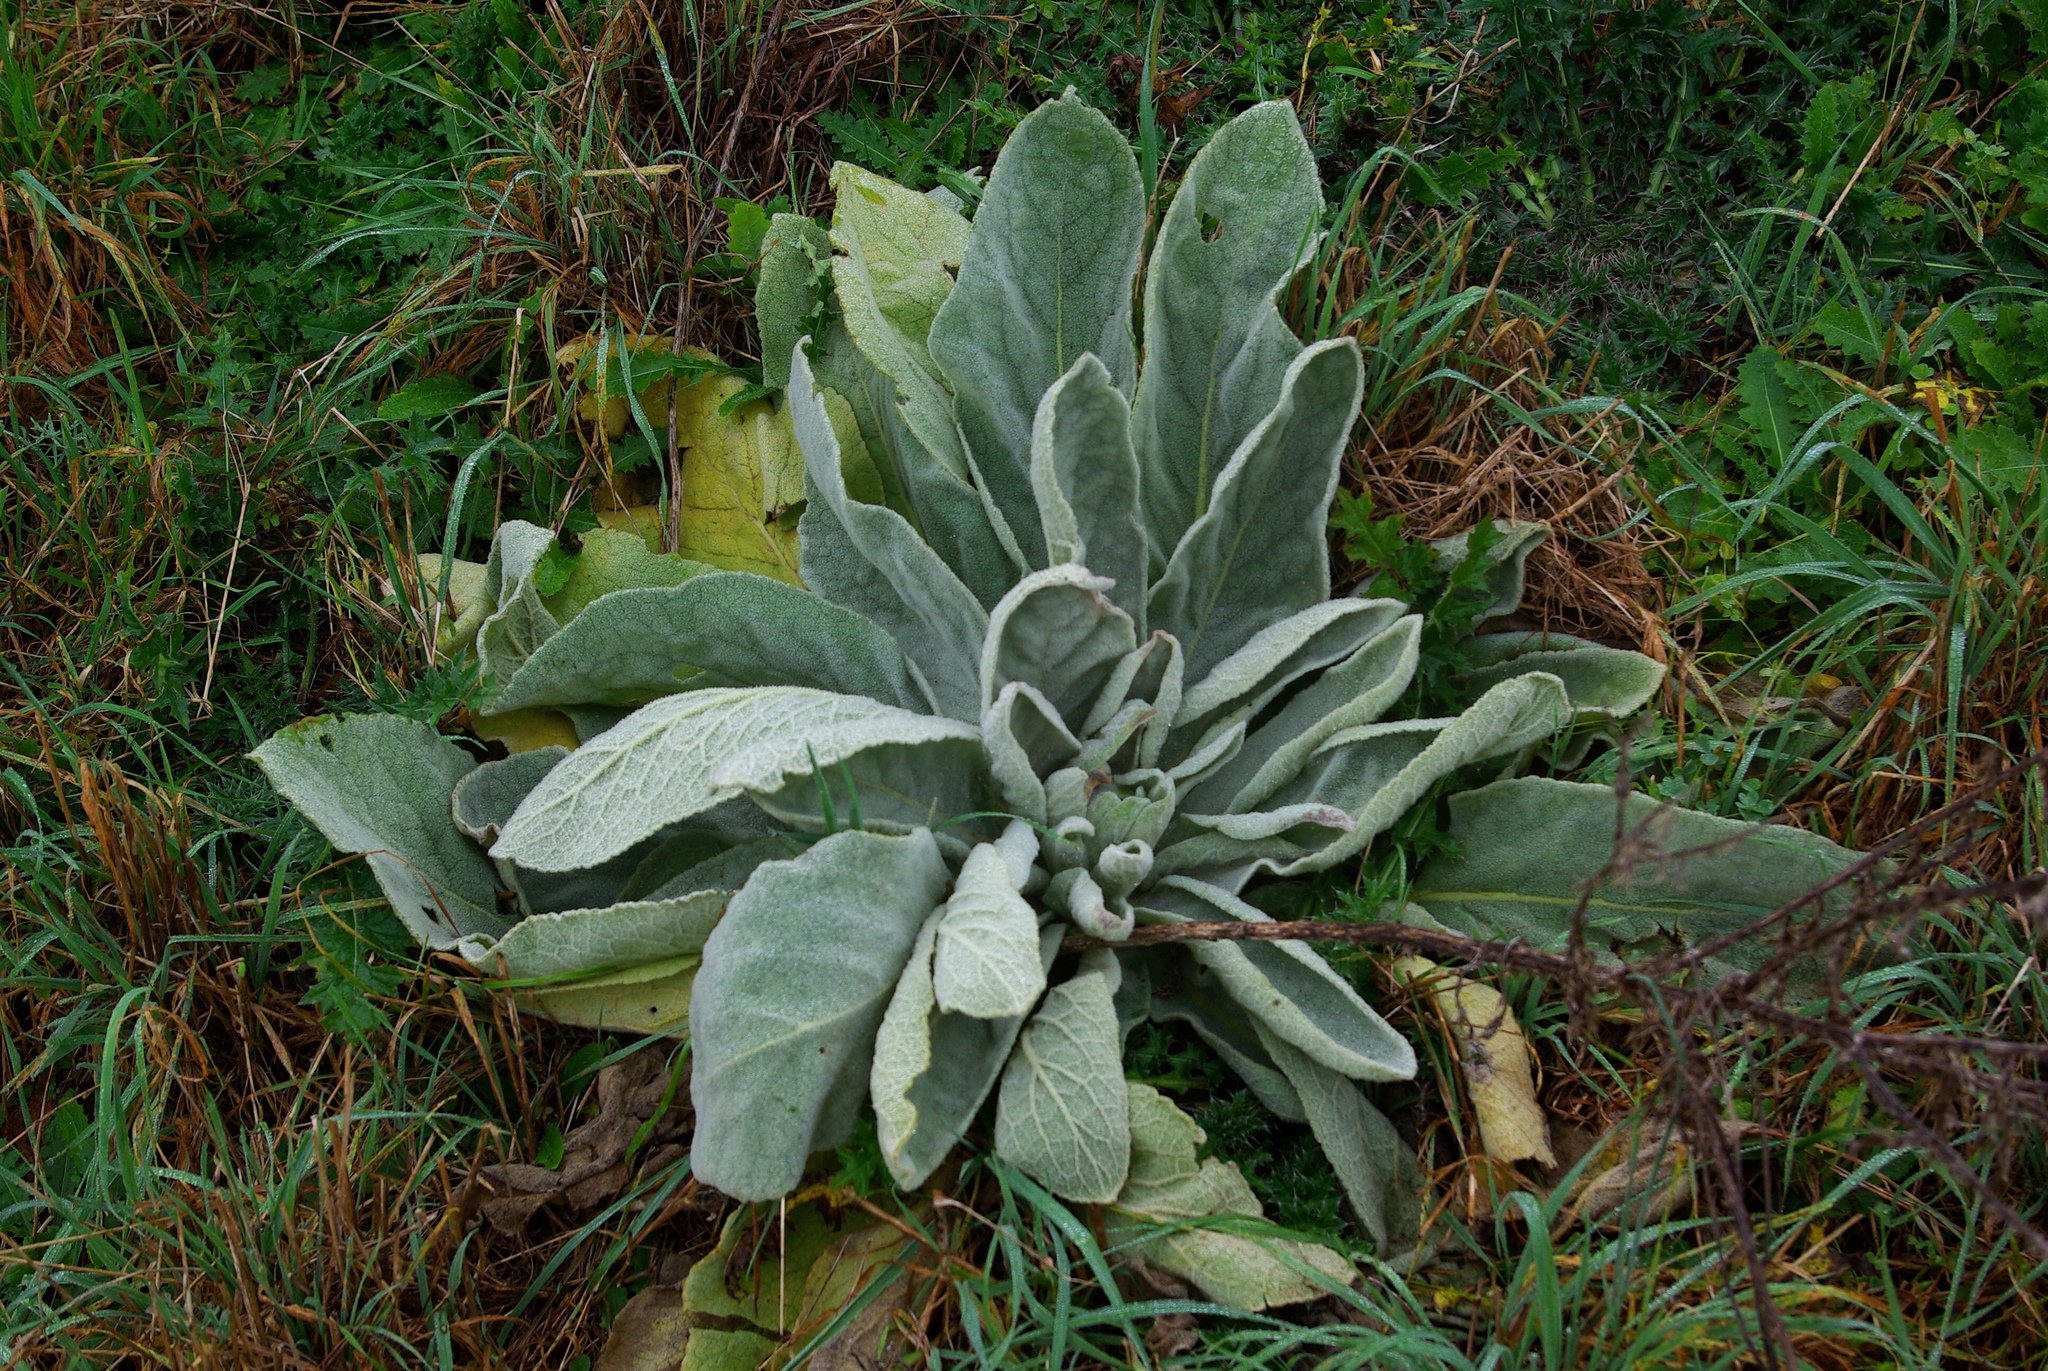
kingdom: Plantae
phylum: Tracheophyta
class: Magnoliopsida
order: Lamiales
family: Scrophulariaceae
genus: Verbascum
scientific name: Verbascum thapsus
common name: Common mullein
